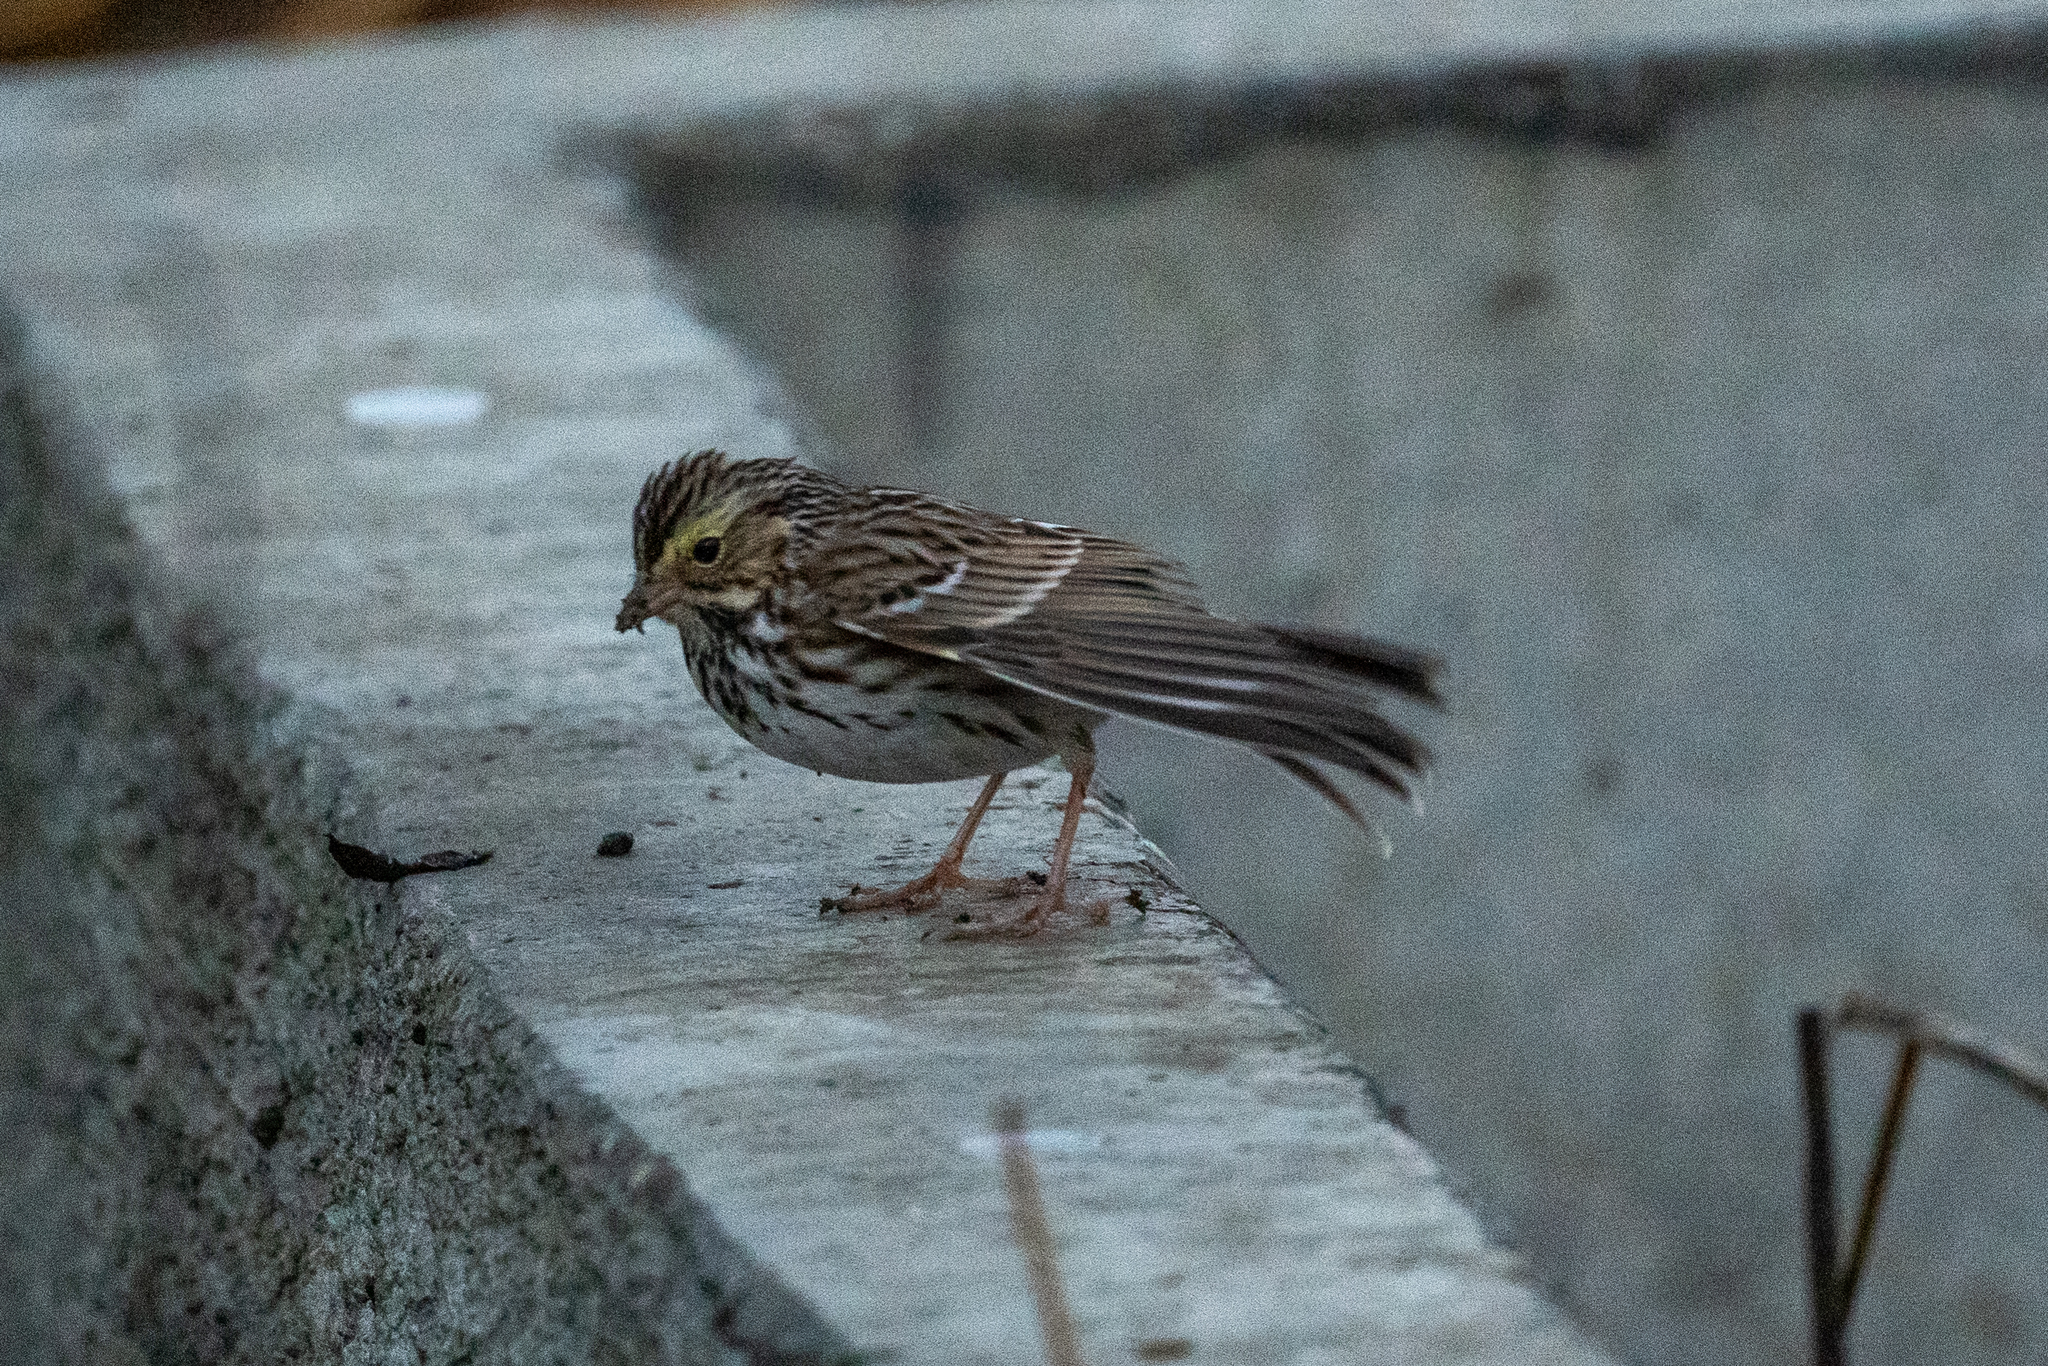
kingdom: Animalia
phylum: Chordata
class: Aves
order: Passeriformes
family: Passerellidae
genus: Passerculus
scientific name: Passerculus sandwichensis
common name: Savannah sparrow
